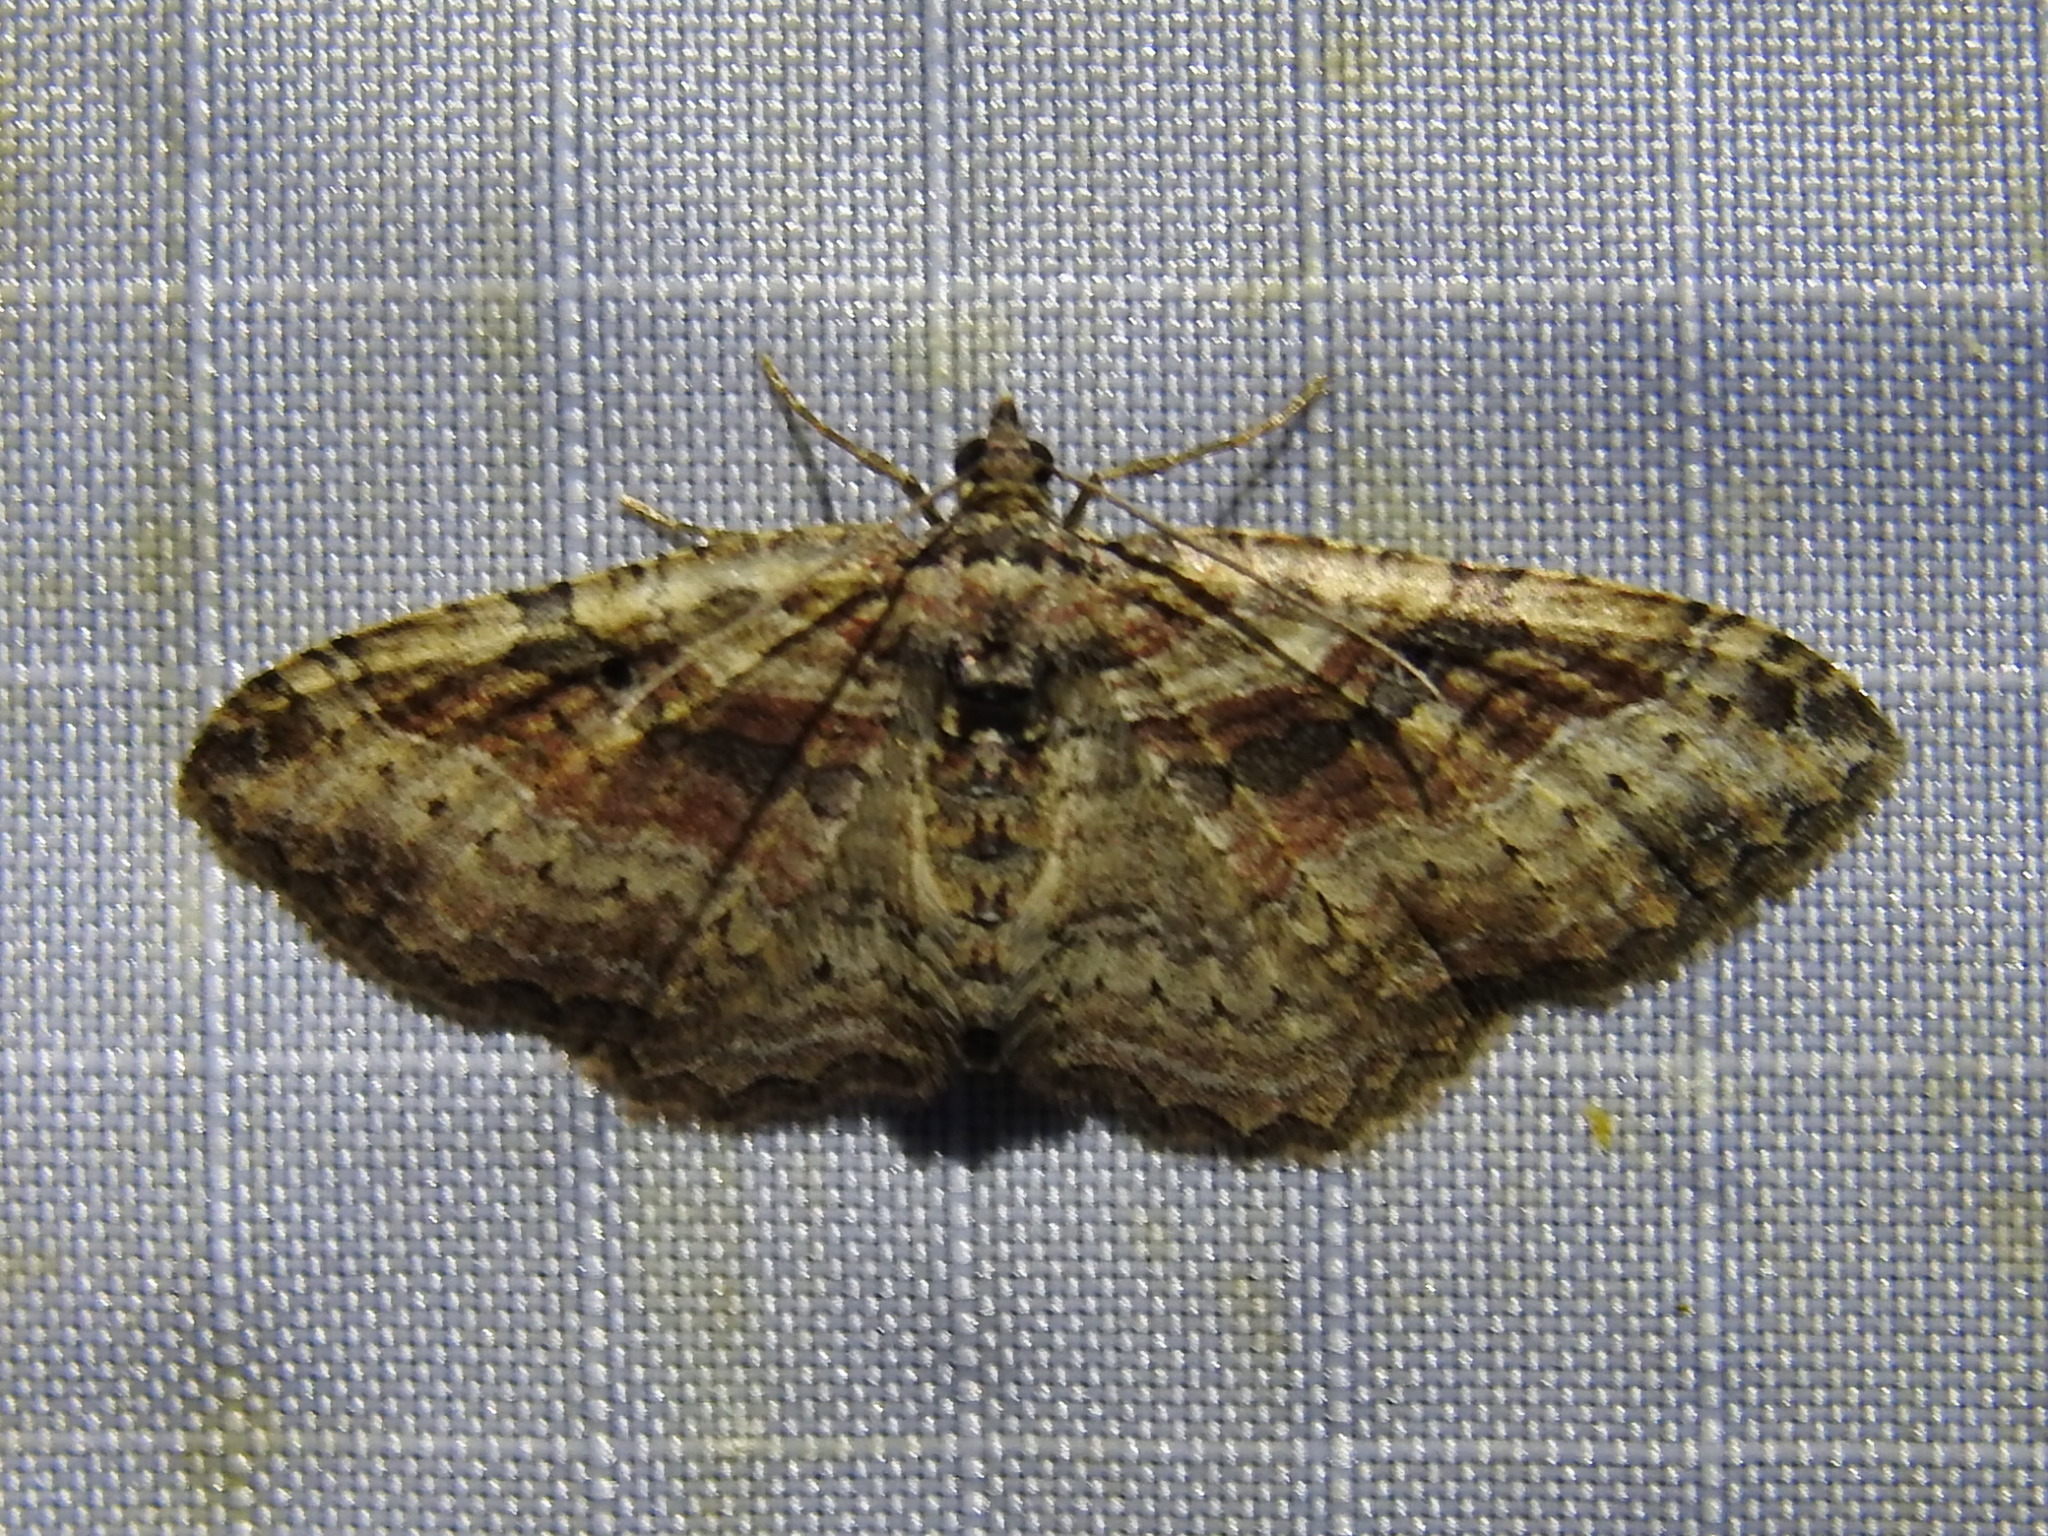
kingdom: Animalia
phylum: Arthropoda
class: Insecta
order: Lepidoptera
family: Geometridae
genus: Costaconvexa
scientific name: Costaconvexa centrostrigaria
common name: Bent-line carpet
